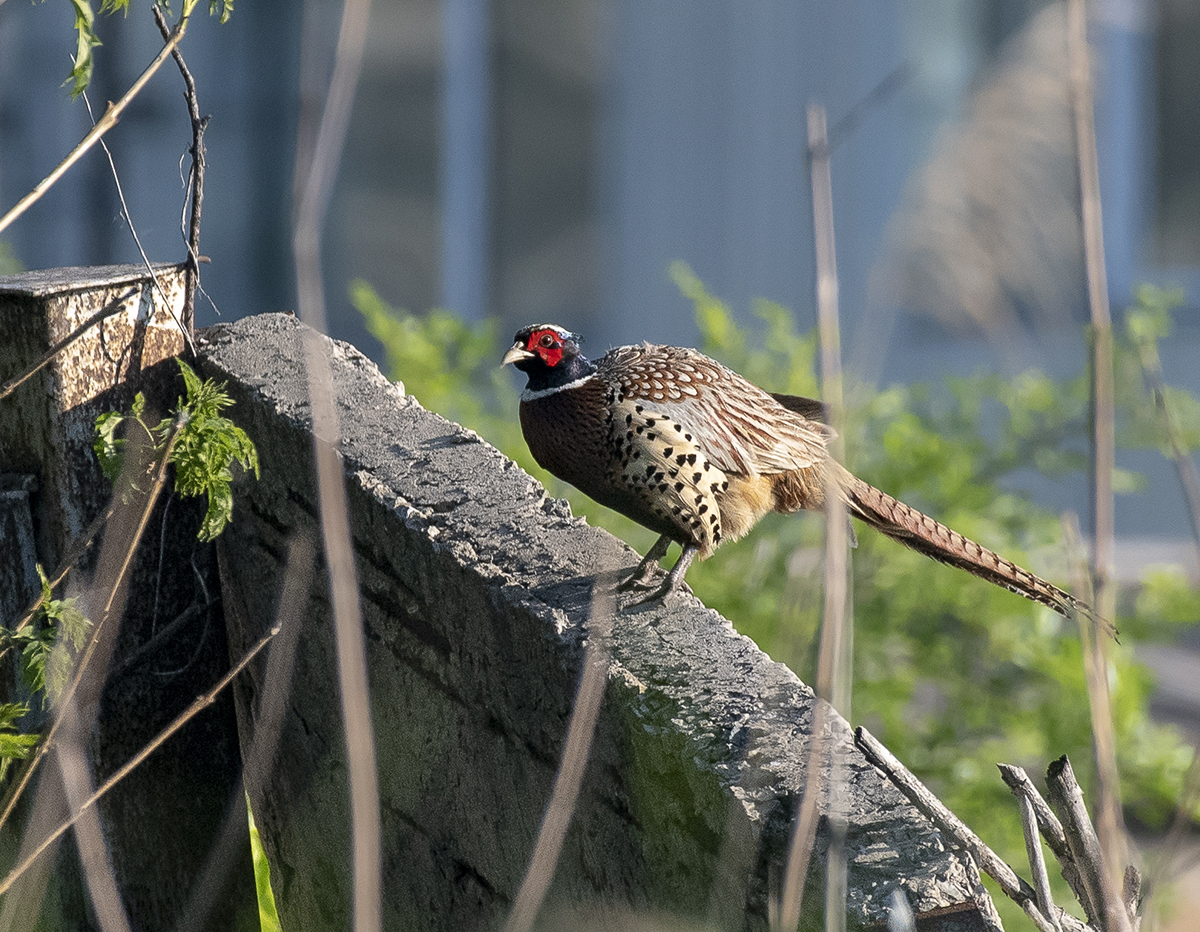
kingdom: Animalia
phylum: Chordata
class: Aves
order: Galliformes
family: Phasianidae
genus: Phasianus
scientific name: Phasianus colchicus
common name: Common pheasant
